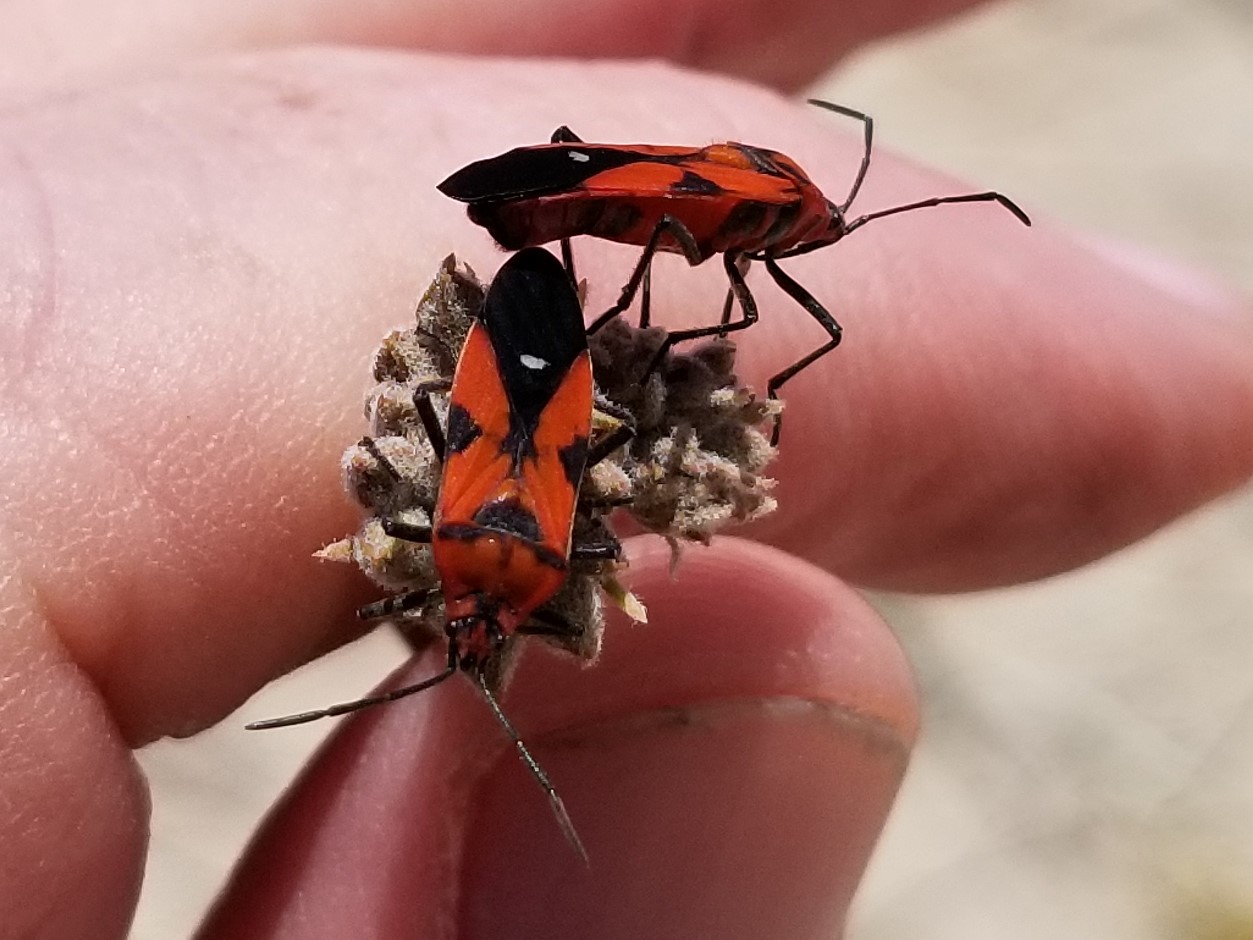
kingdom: Animalia
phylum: Arthropoda
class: Insecta
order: Hemiptera
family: Lygaeidae
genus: Oncopeltus
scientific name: Oncopeltus sanguinolentus
